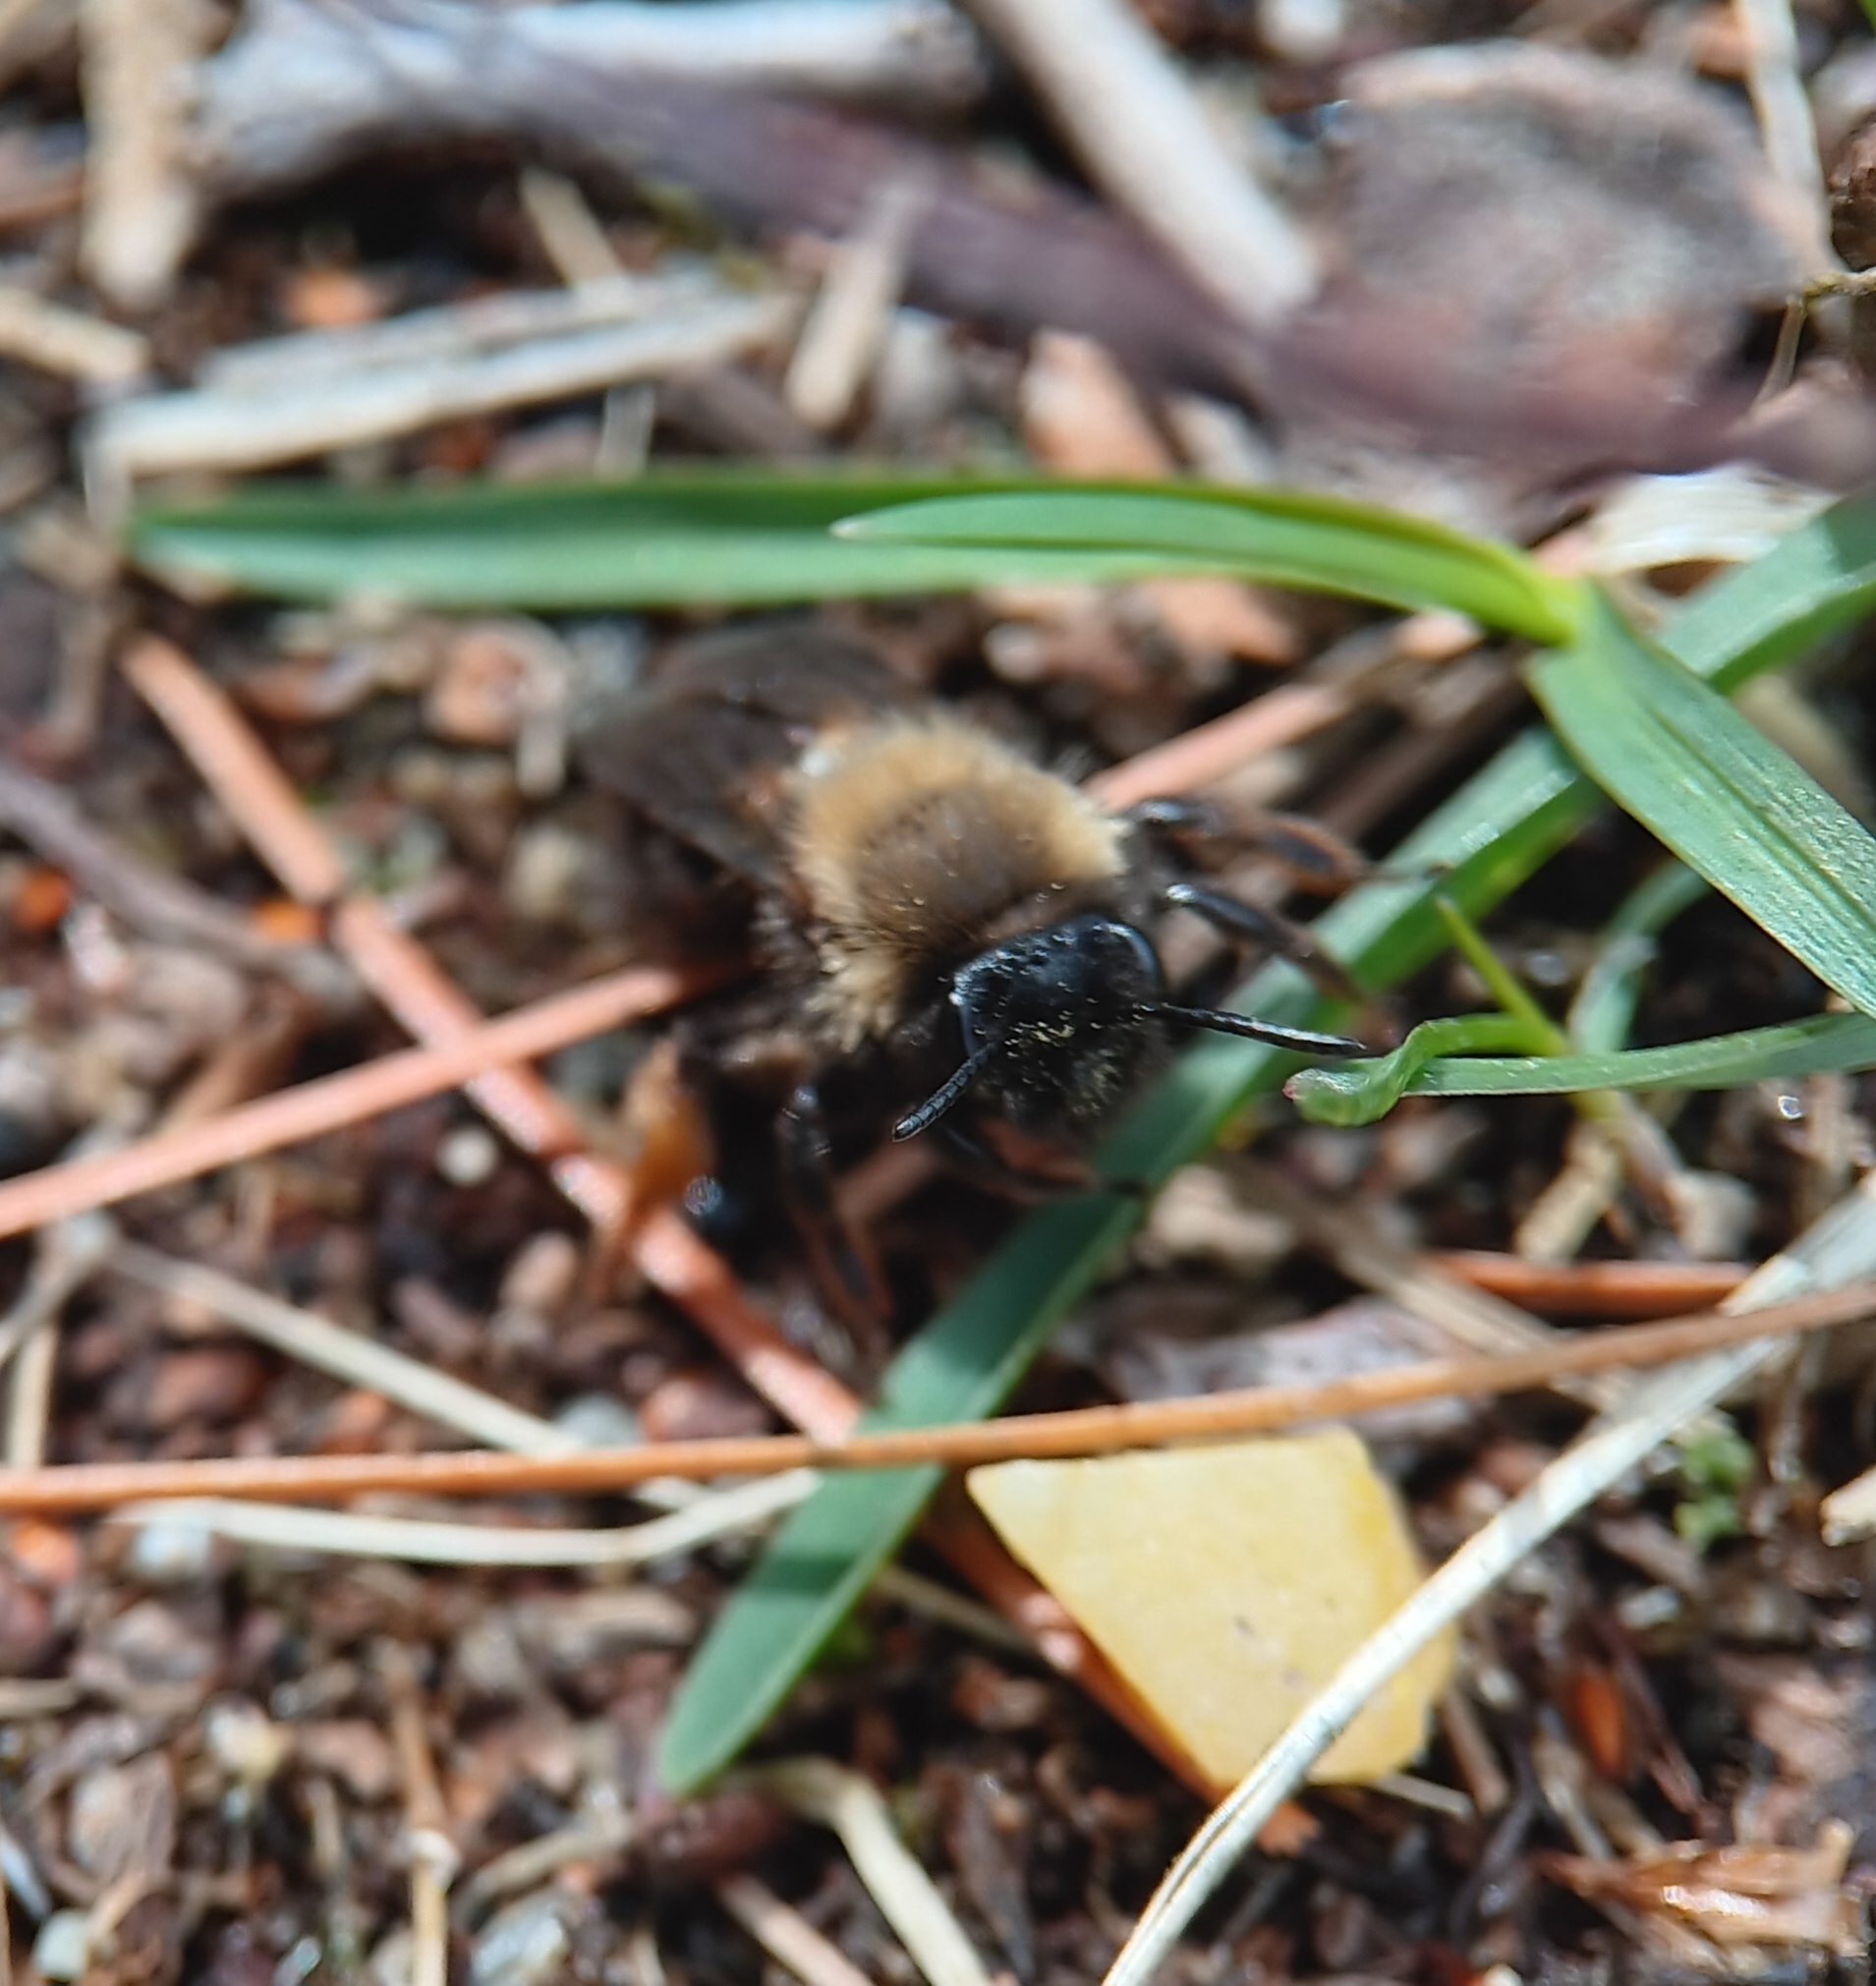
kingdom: Animalia
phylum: Arthropoda
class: Insecta
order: Hymenoptera
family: Andrenidae
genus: Andrena
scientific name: Andrena clarkella
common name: Clarke's mining bee
